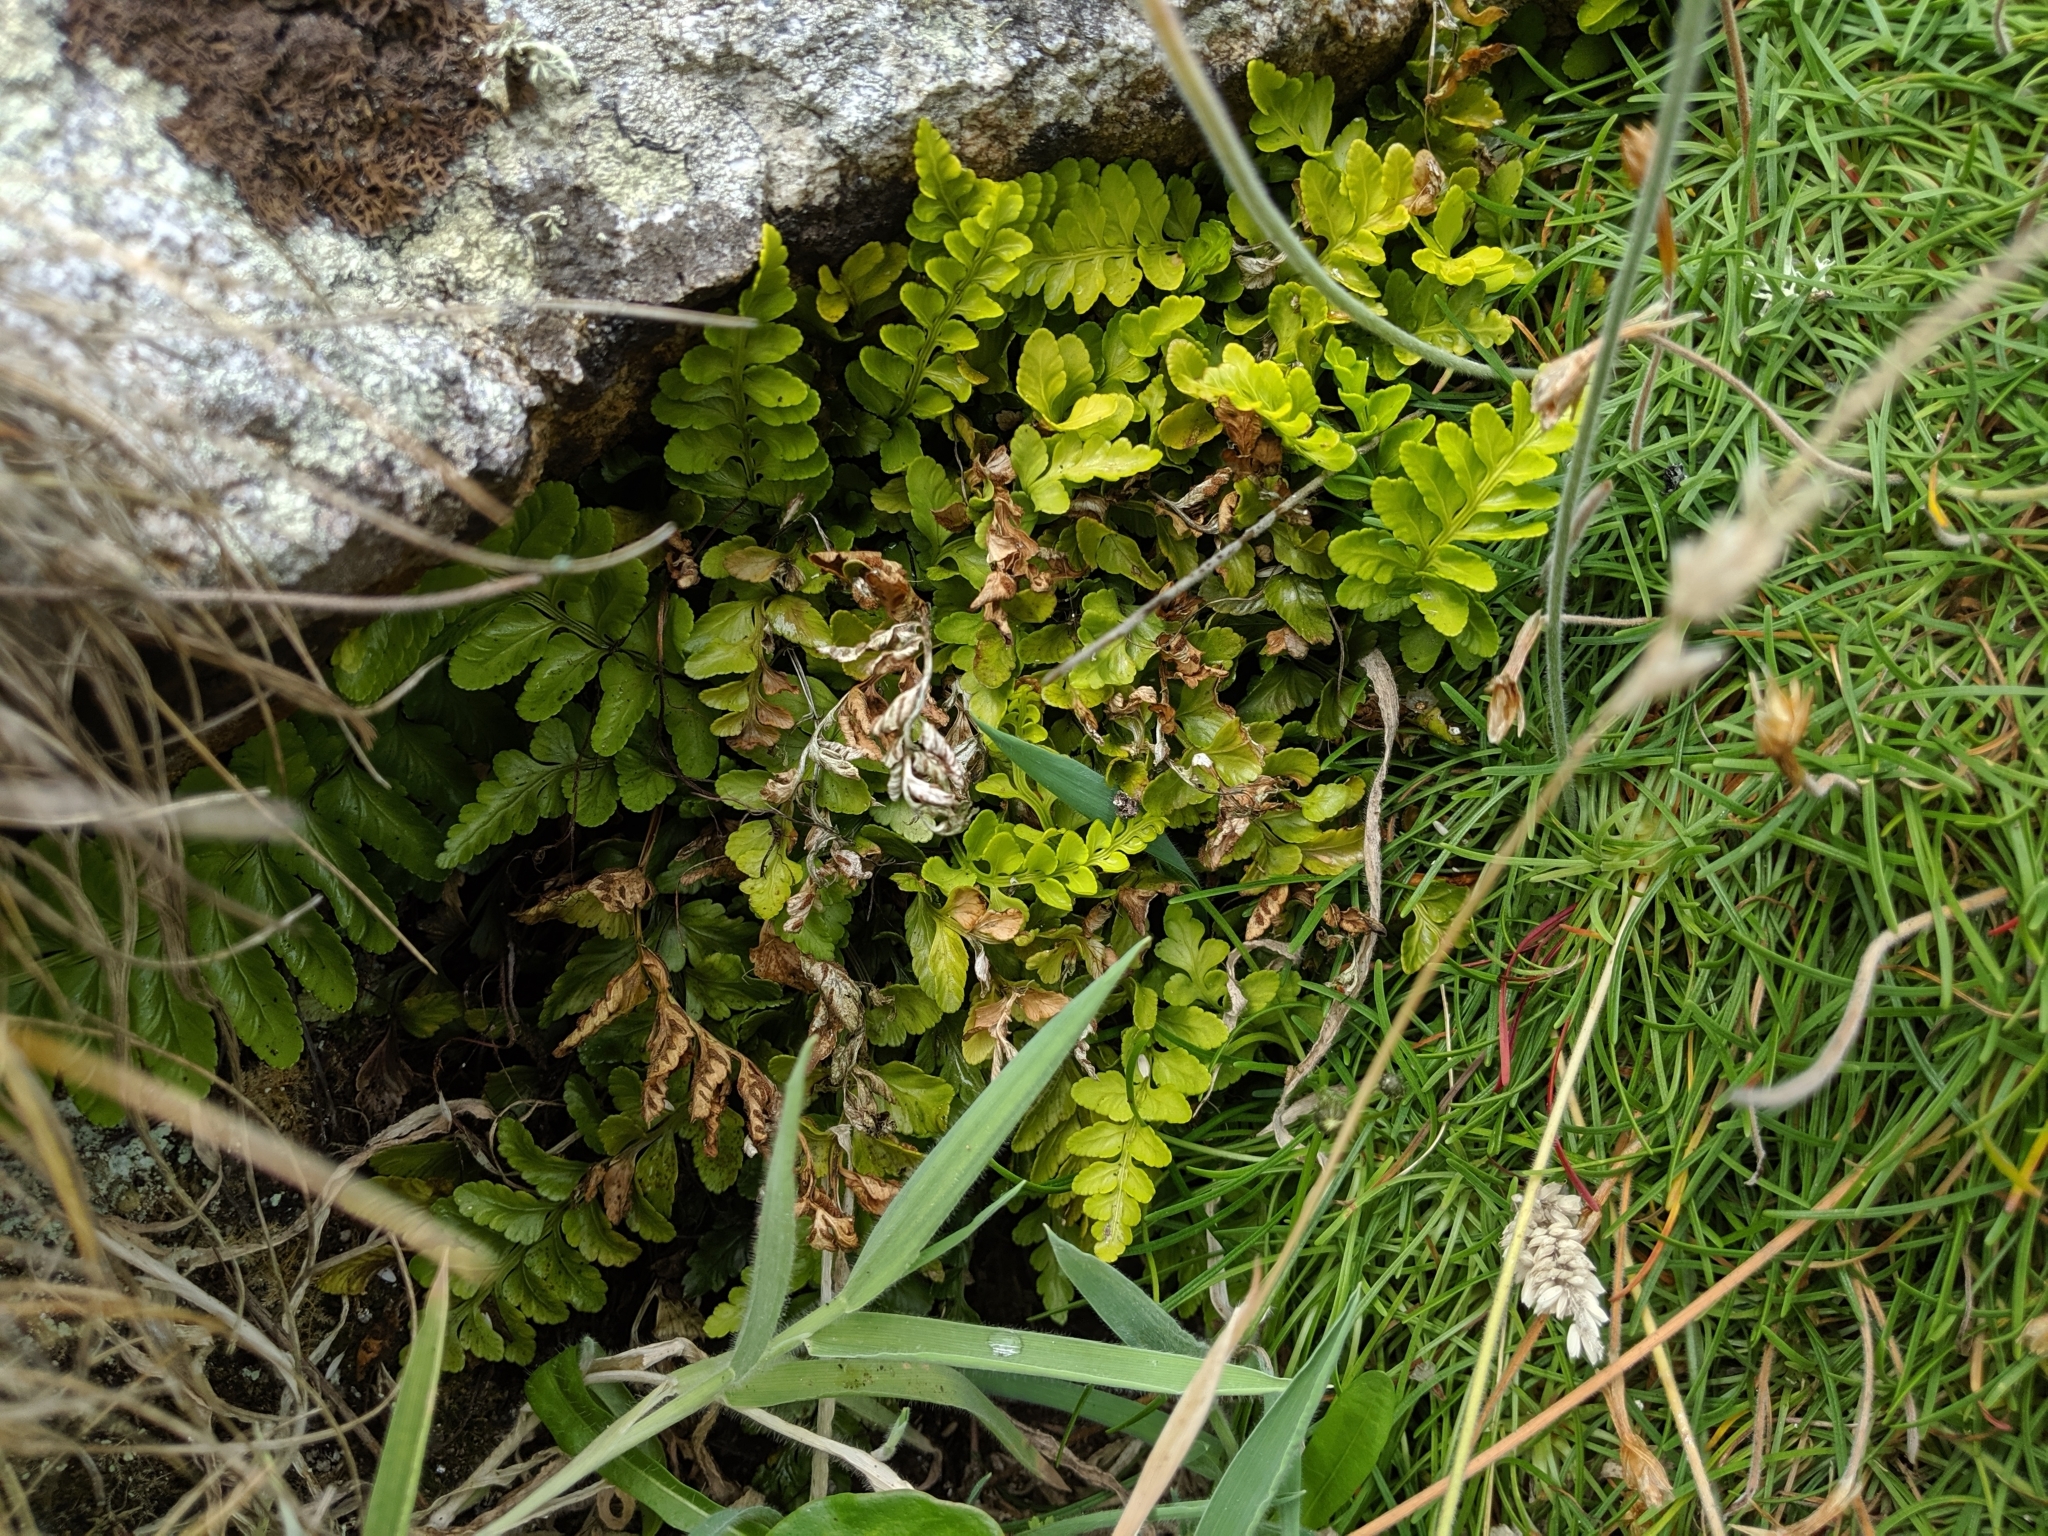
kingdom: Plantae
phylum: Tracheophyta
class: Polypodiopsida
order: Polypodiales
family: Aspleniaceae
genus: Asplenium
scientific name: Asplenium marinum
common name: Sea spleenwort
